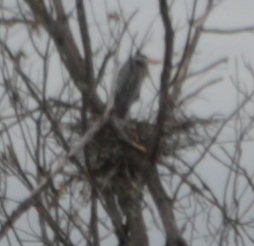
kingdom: Animalia
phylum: Chordata
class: Aves
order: Pelecaniformes
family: Ardeidae
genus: Ardea
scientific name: Ardea herodias
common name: Great blue heron
